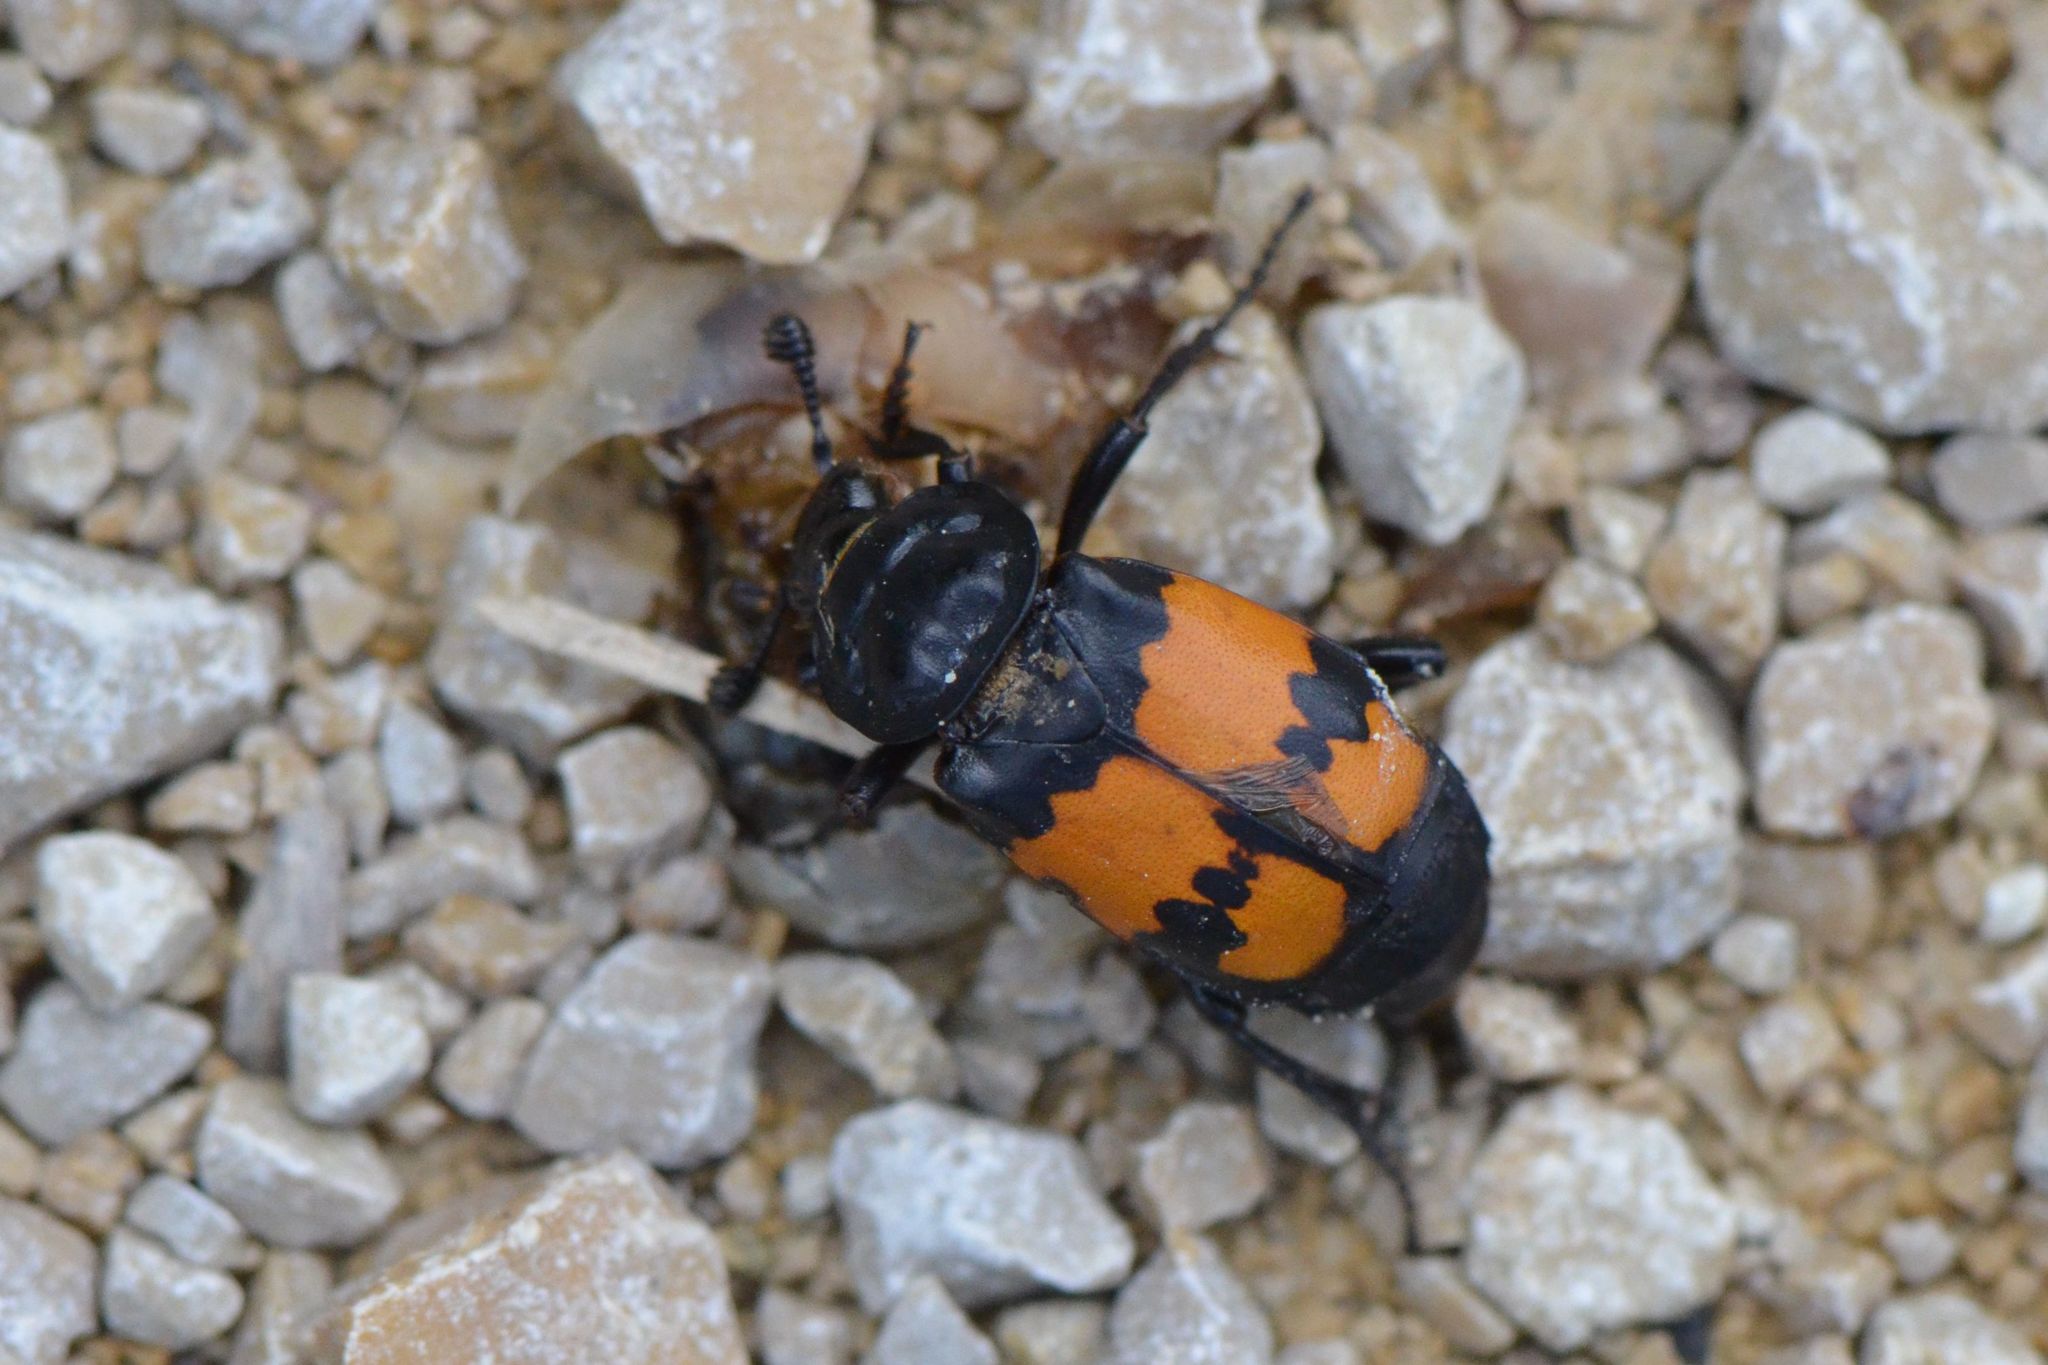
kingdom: Animalia
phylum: Arthropoda
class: Insecta
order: Coleoptera
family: Staphylinidae
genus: Nicrophorus
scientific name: Nicrophorus vespilloides
